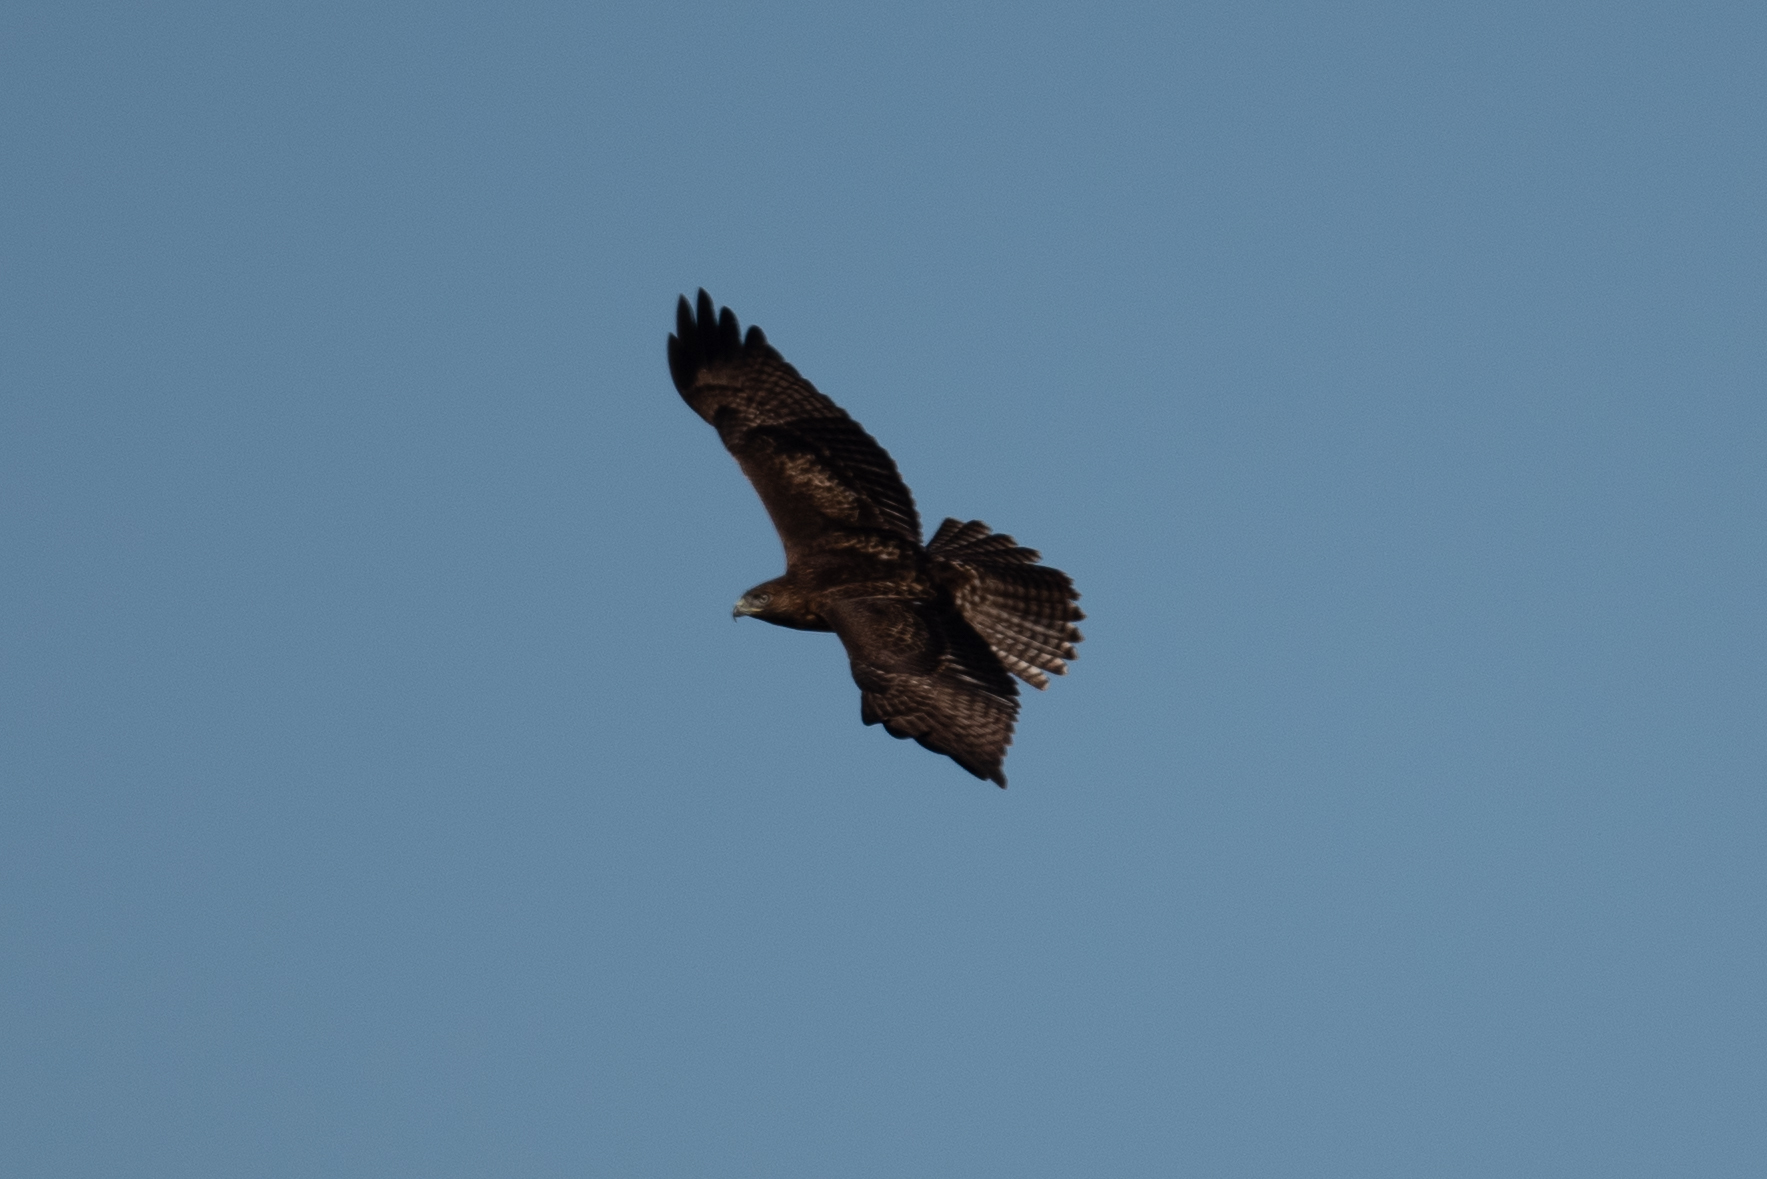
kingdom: Animalia
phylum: Chordata
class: Aves
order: Accipitriformes
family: Accipitridae
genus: Buteo
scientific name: Buteo jamaicensis
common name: Red-tailed hawk
